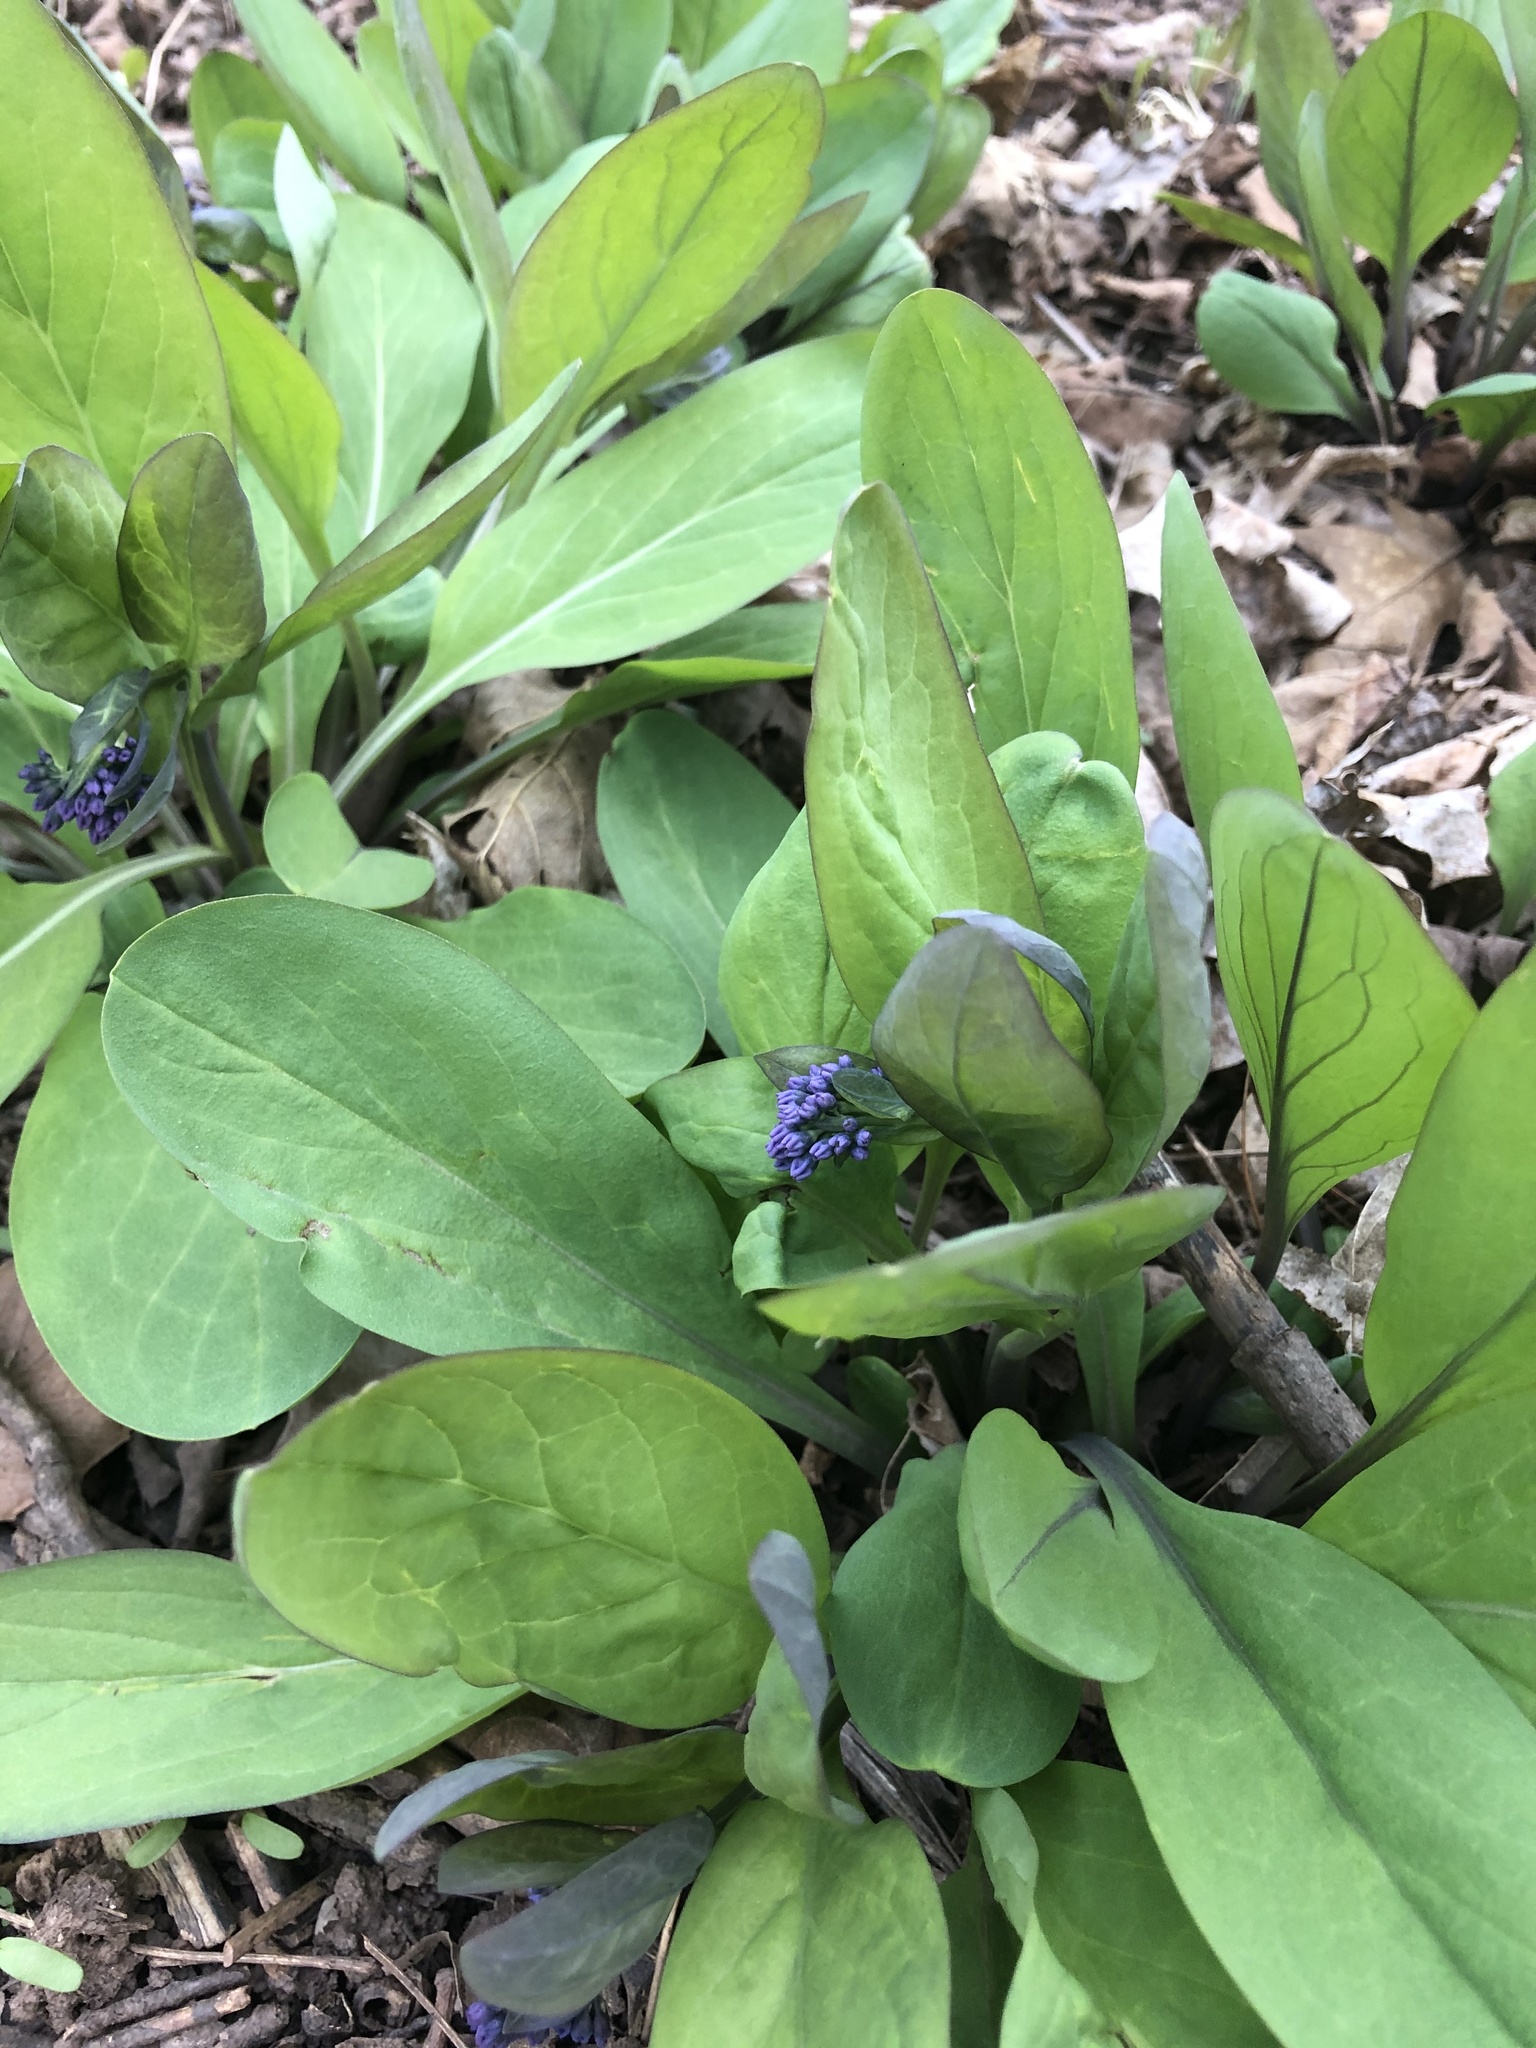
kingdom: Plantae
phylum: Tracheophyta
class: Magnoliopsida
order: Boraginales
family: Boraginaceae
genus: Mertensia
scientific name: Mertensia virginica
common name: Virginia bluebells
